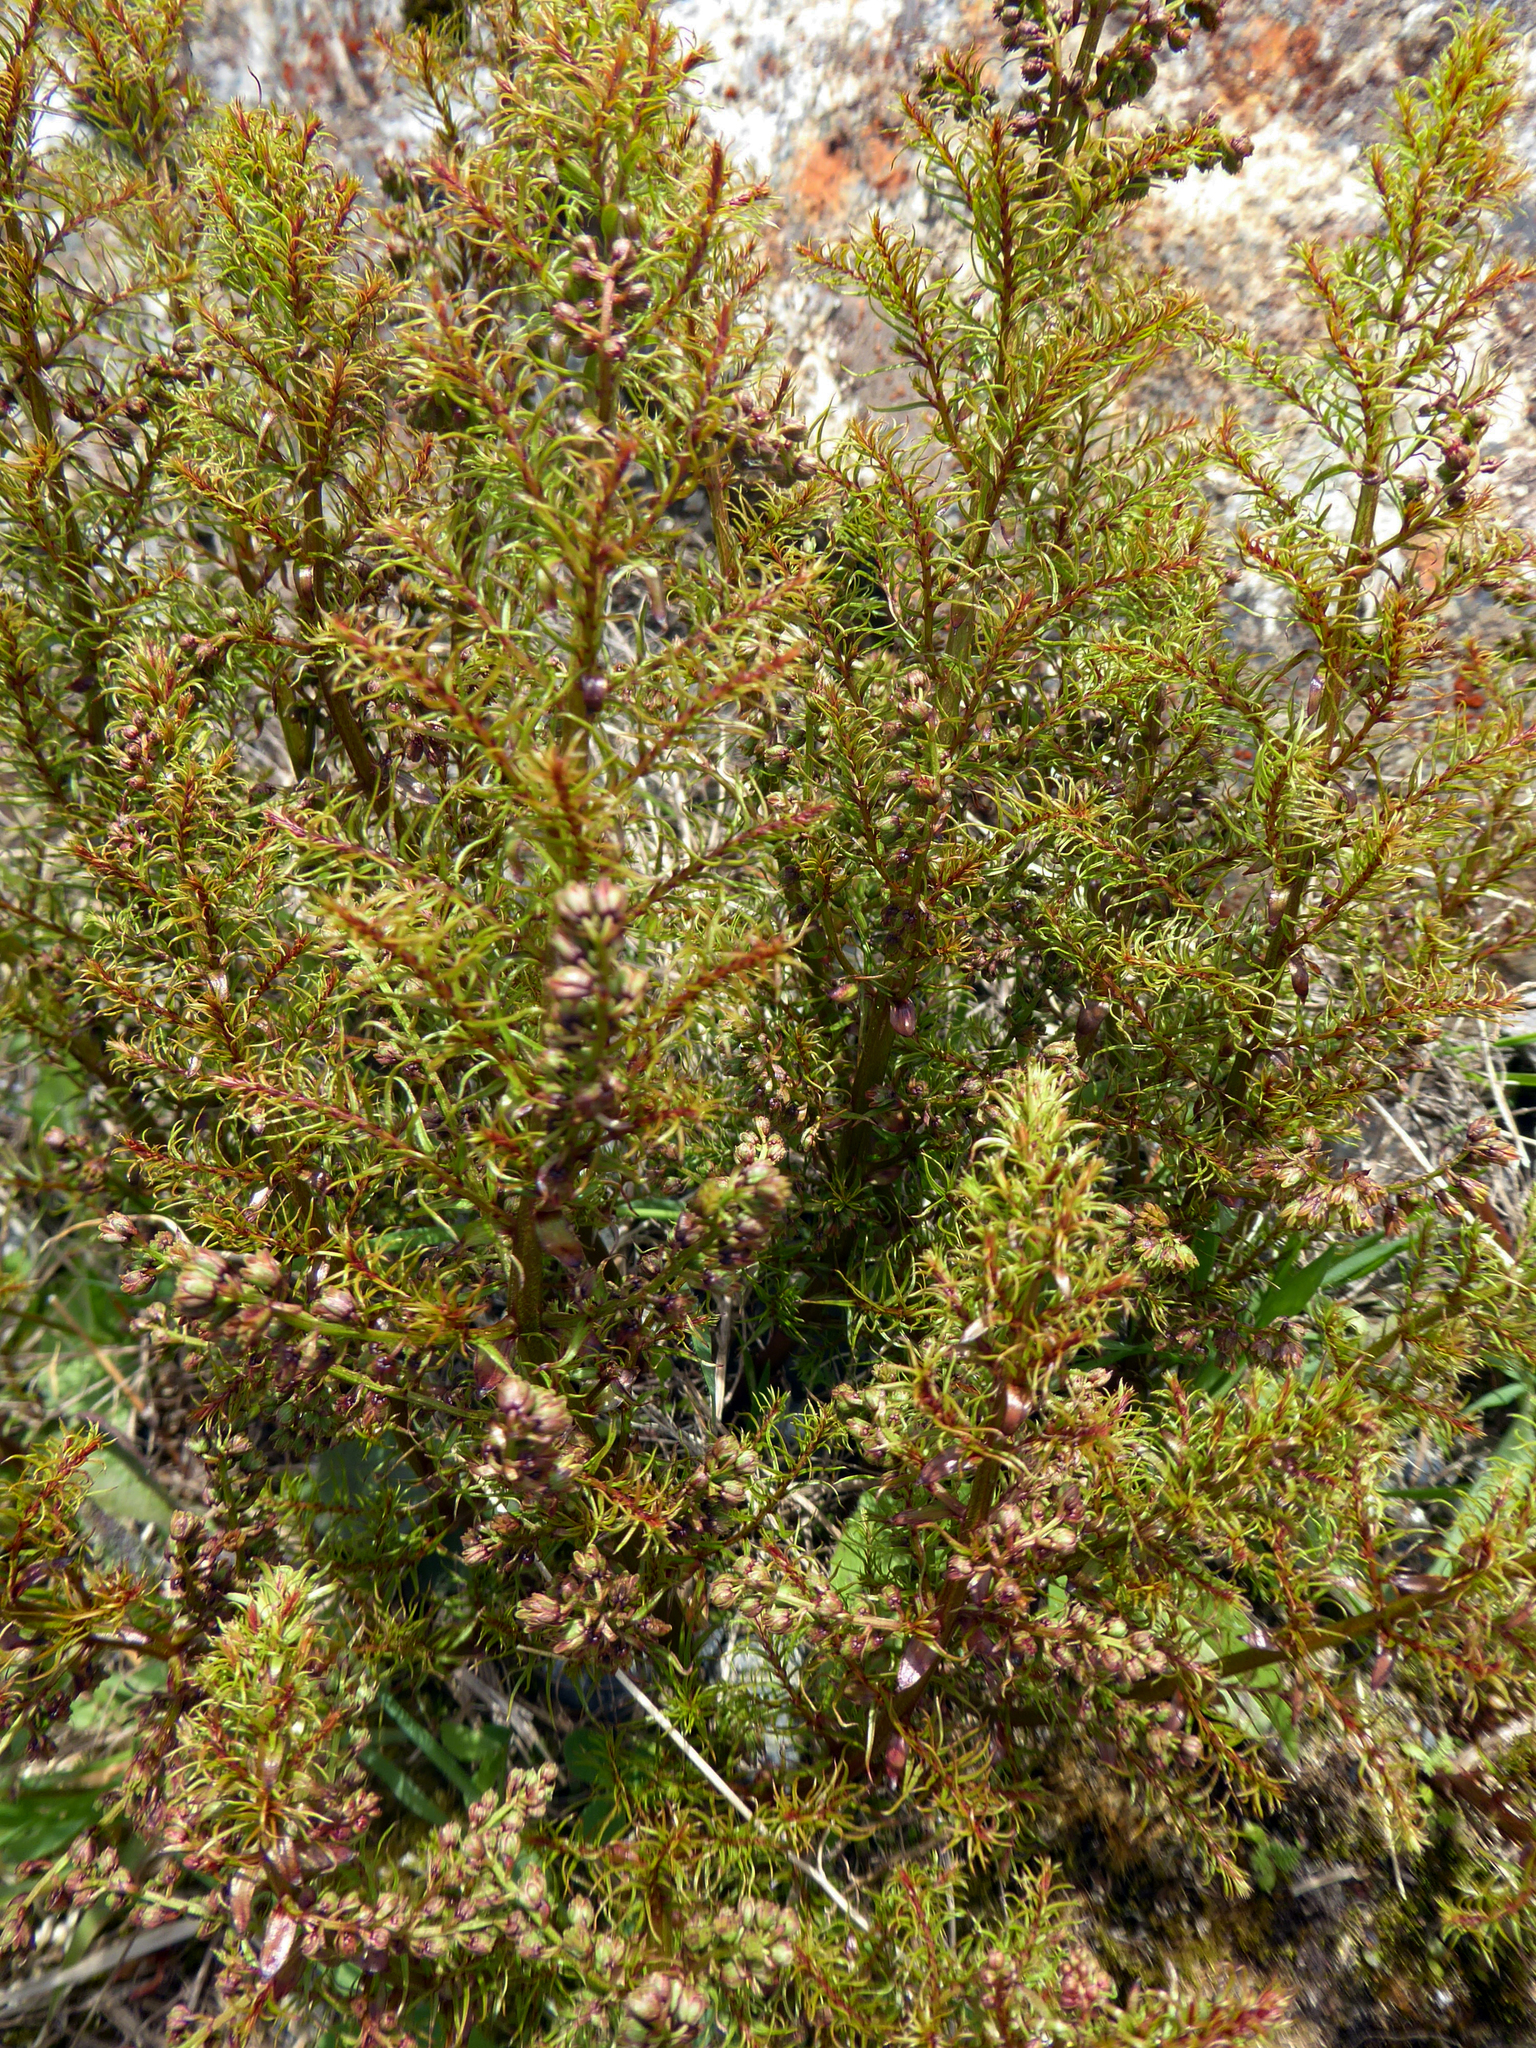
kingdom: Plantae
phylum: Tracheophyta
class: Magnoliopsida
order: Cucurbitales
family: Coriariaceae
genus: Coriaria
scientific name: Coriaria angustissima
